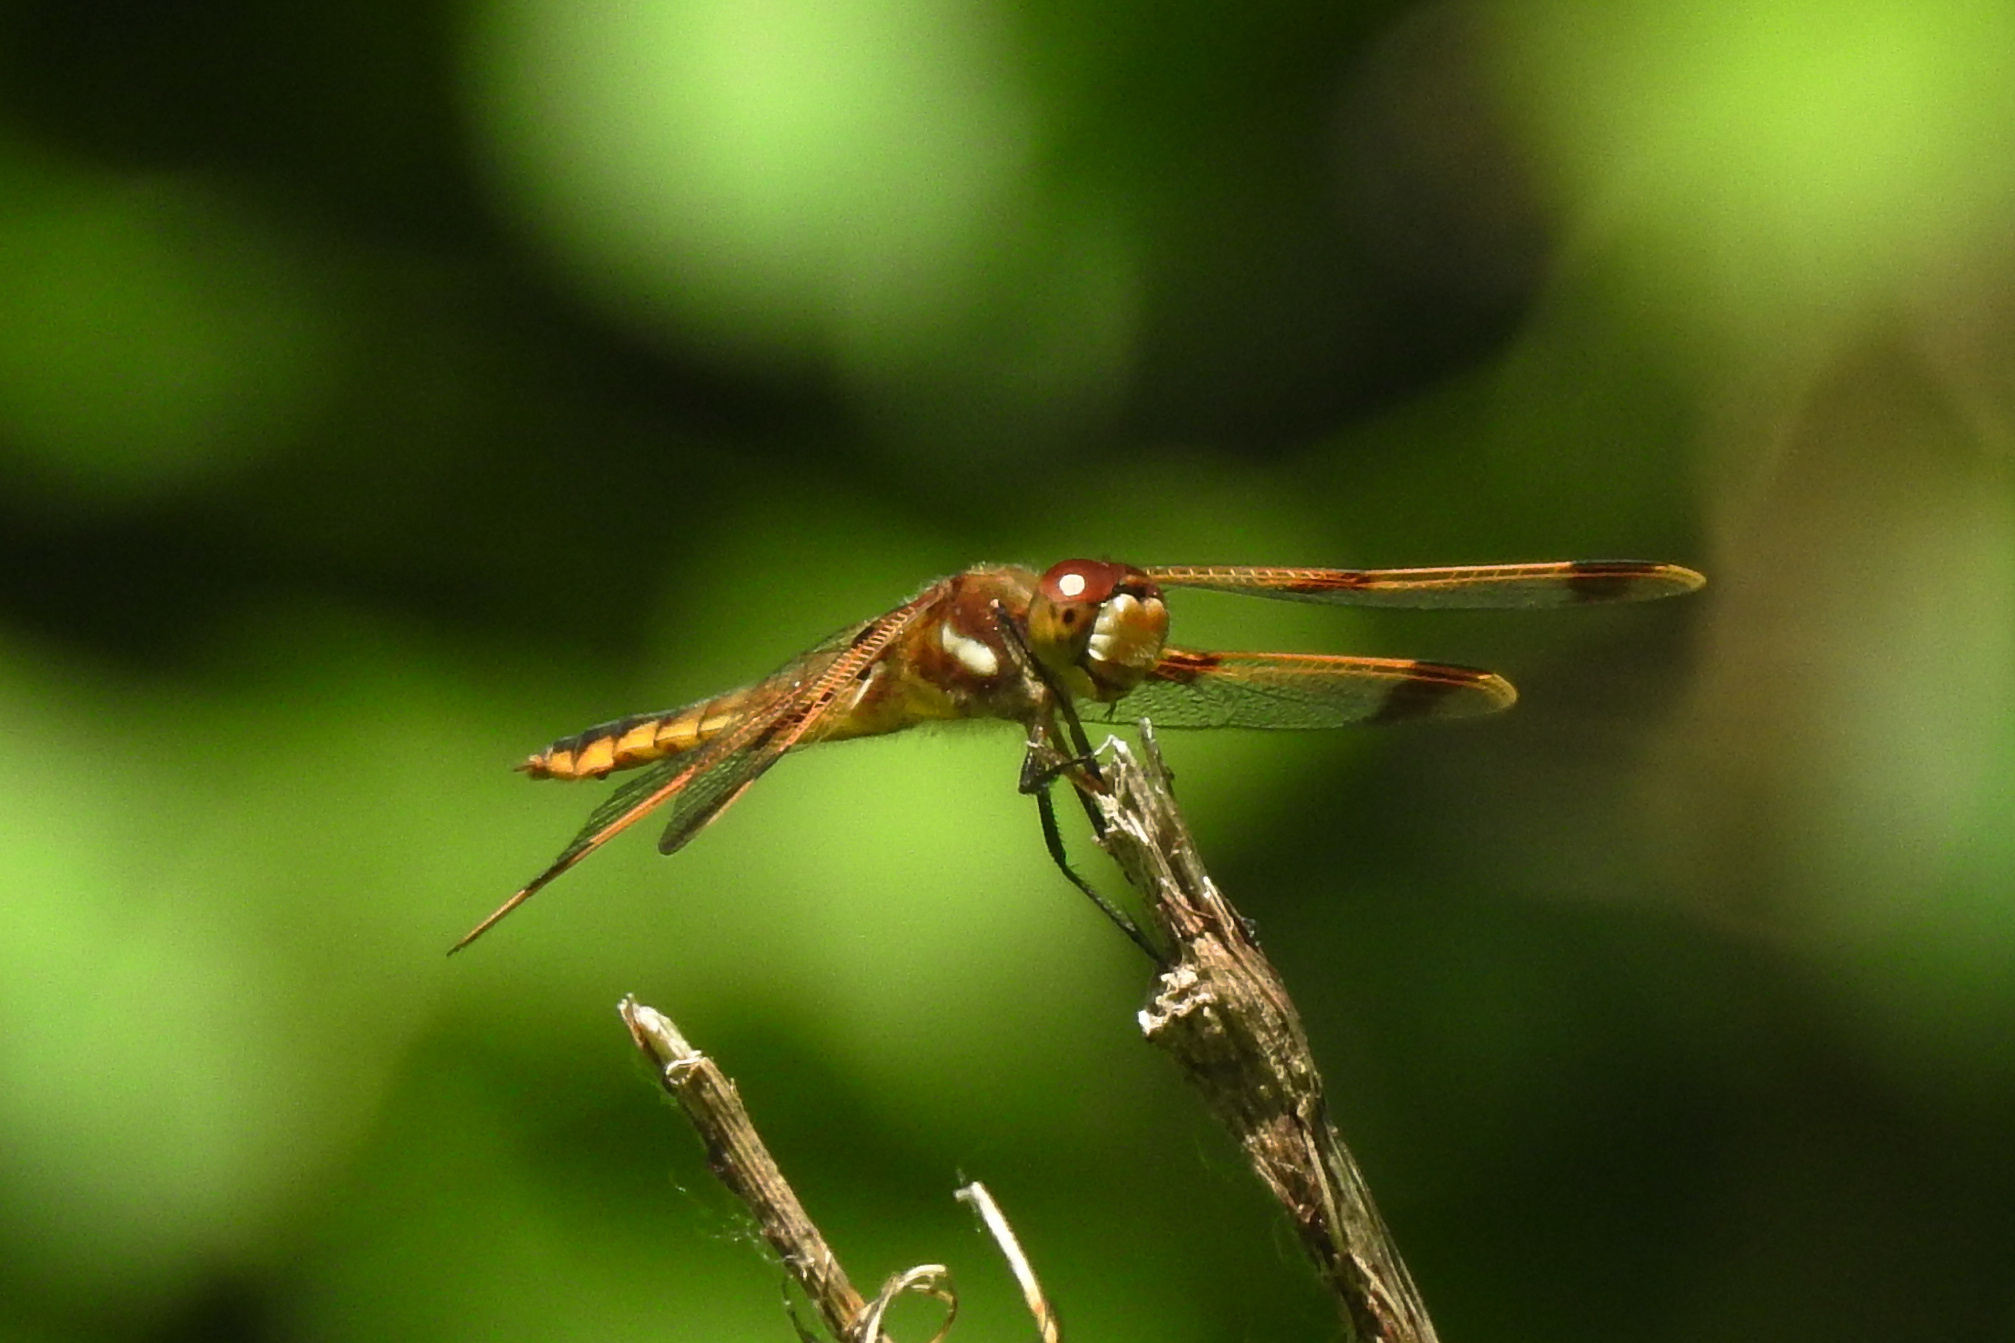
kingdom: Animalia
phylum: Arthropoda
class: Insecta
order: Odonata
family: Libellulidae
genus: Libellula
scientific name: Libellula semifasciata
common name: Painted skimmer
